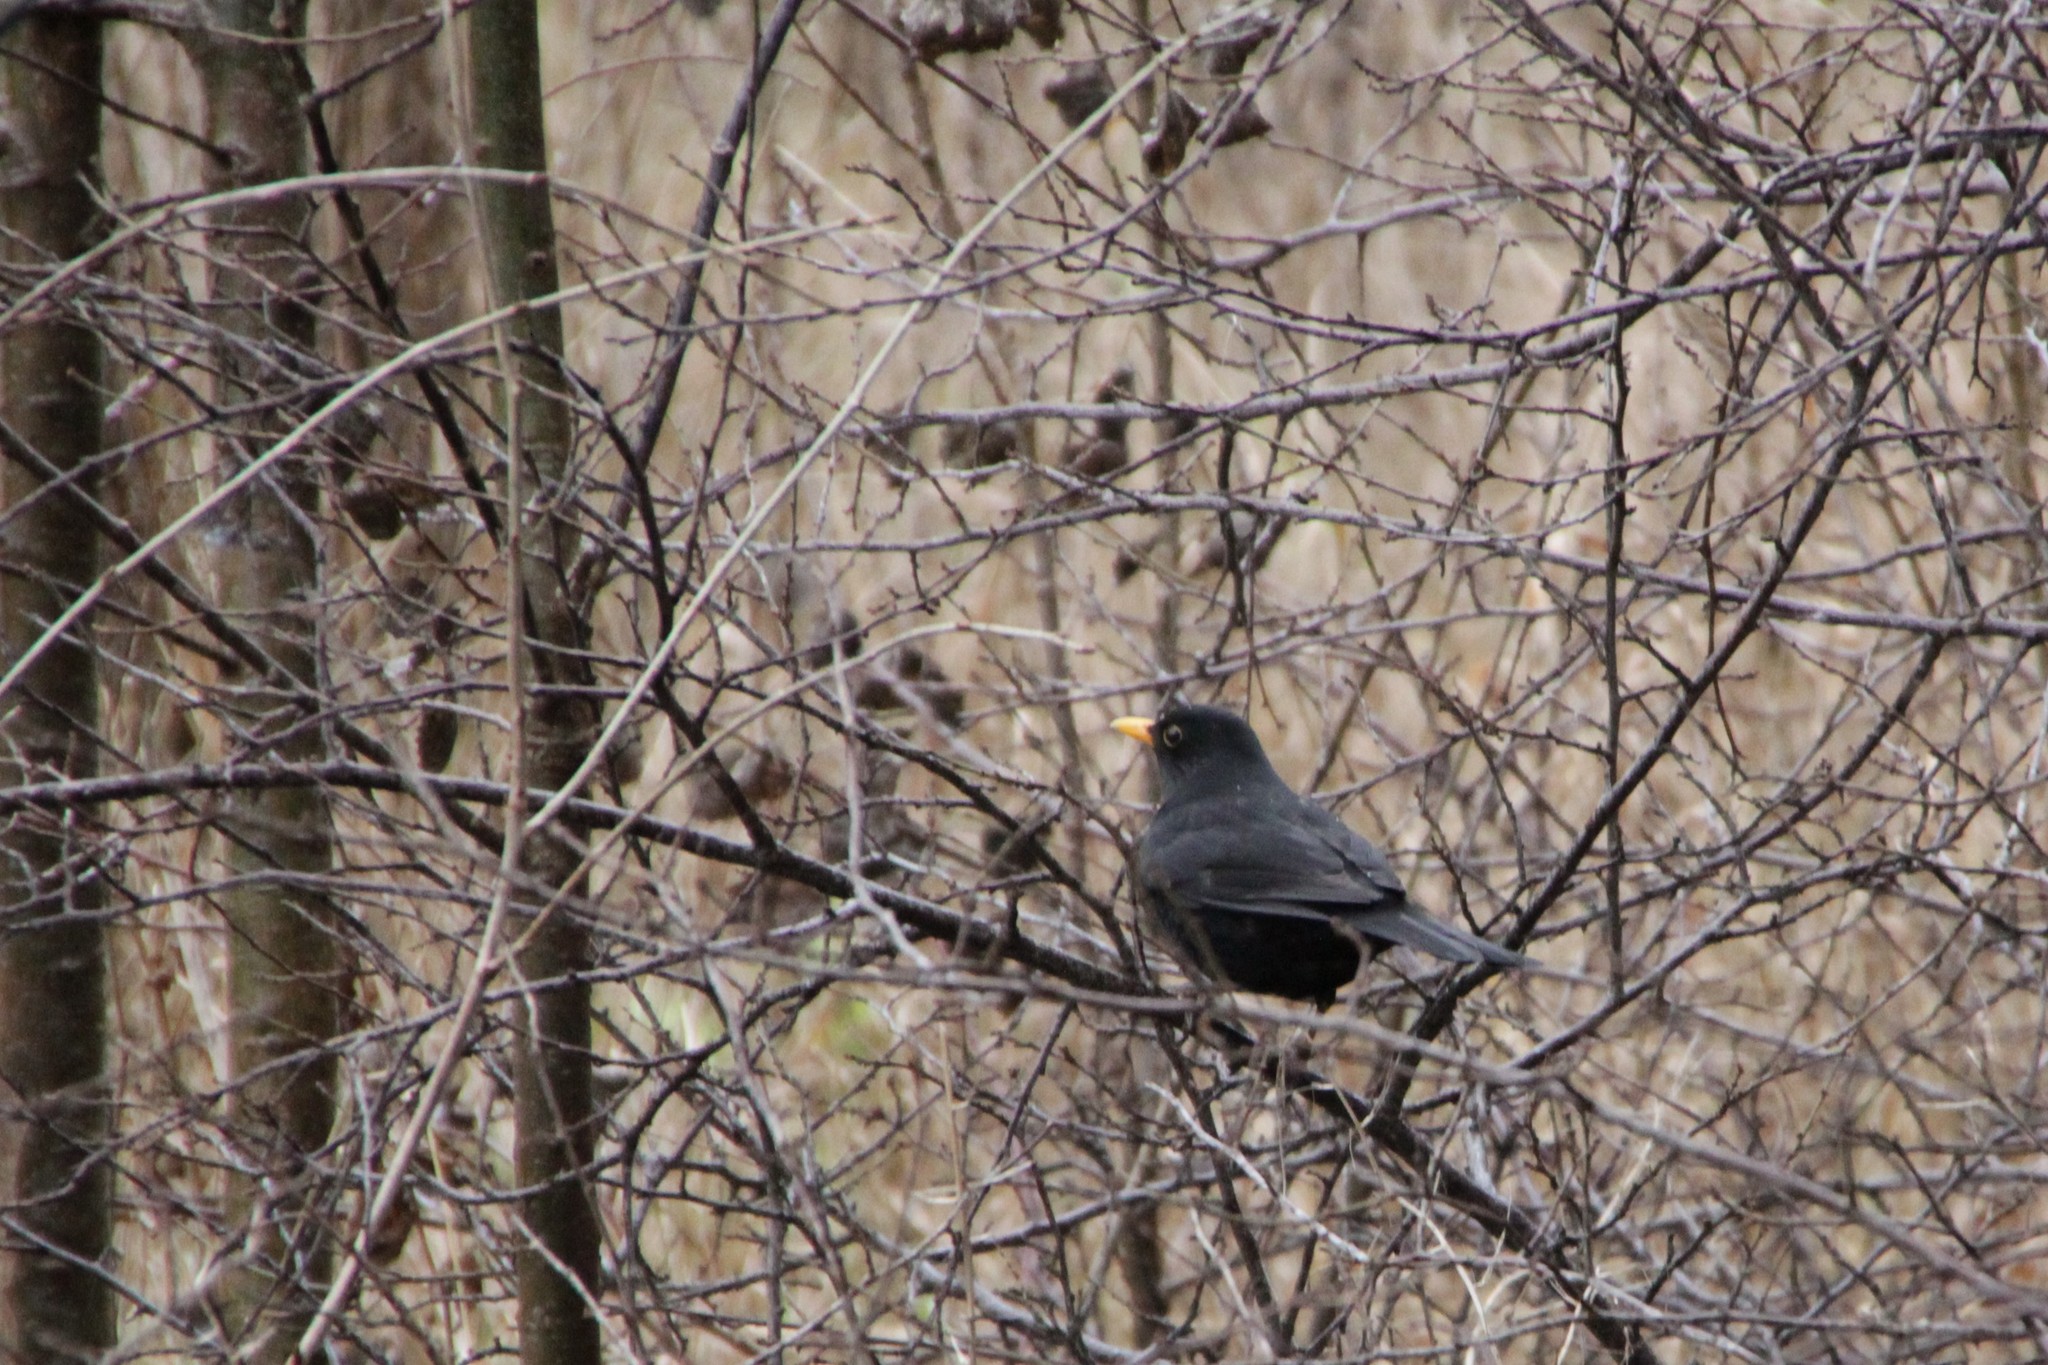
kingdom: Animalia
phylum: Chordata
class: Aves
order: Passeriformes
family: Turdidae
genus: Turdus
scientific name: Turdus merula
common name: Common blackbird
